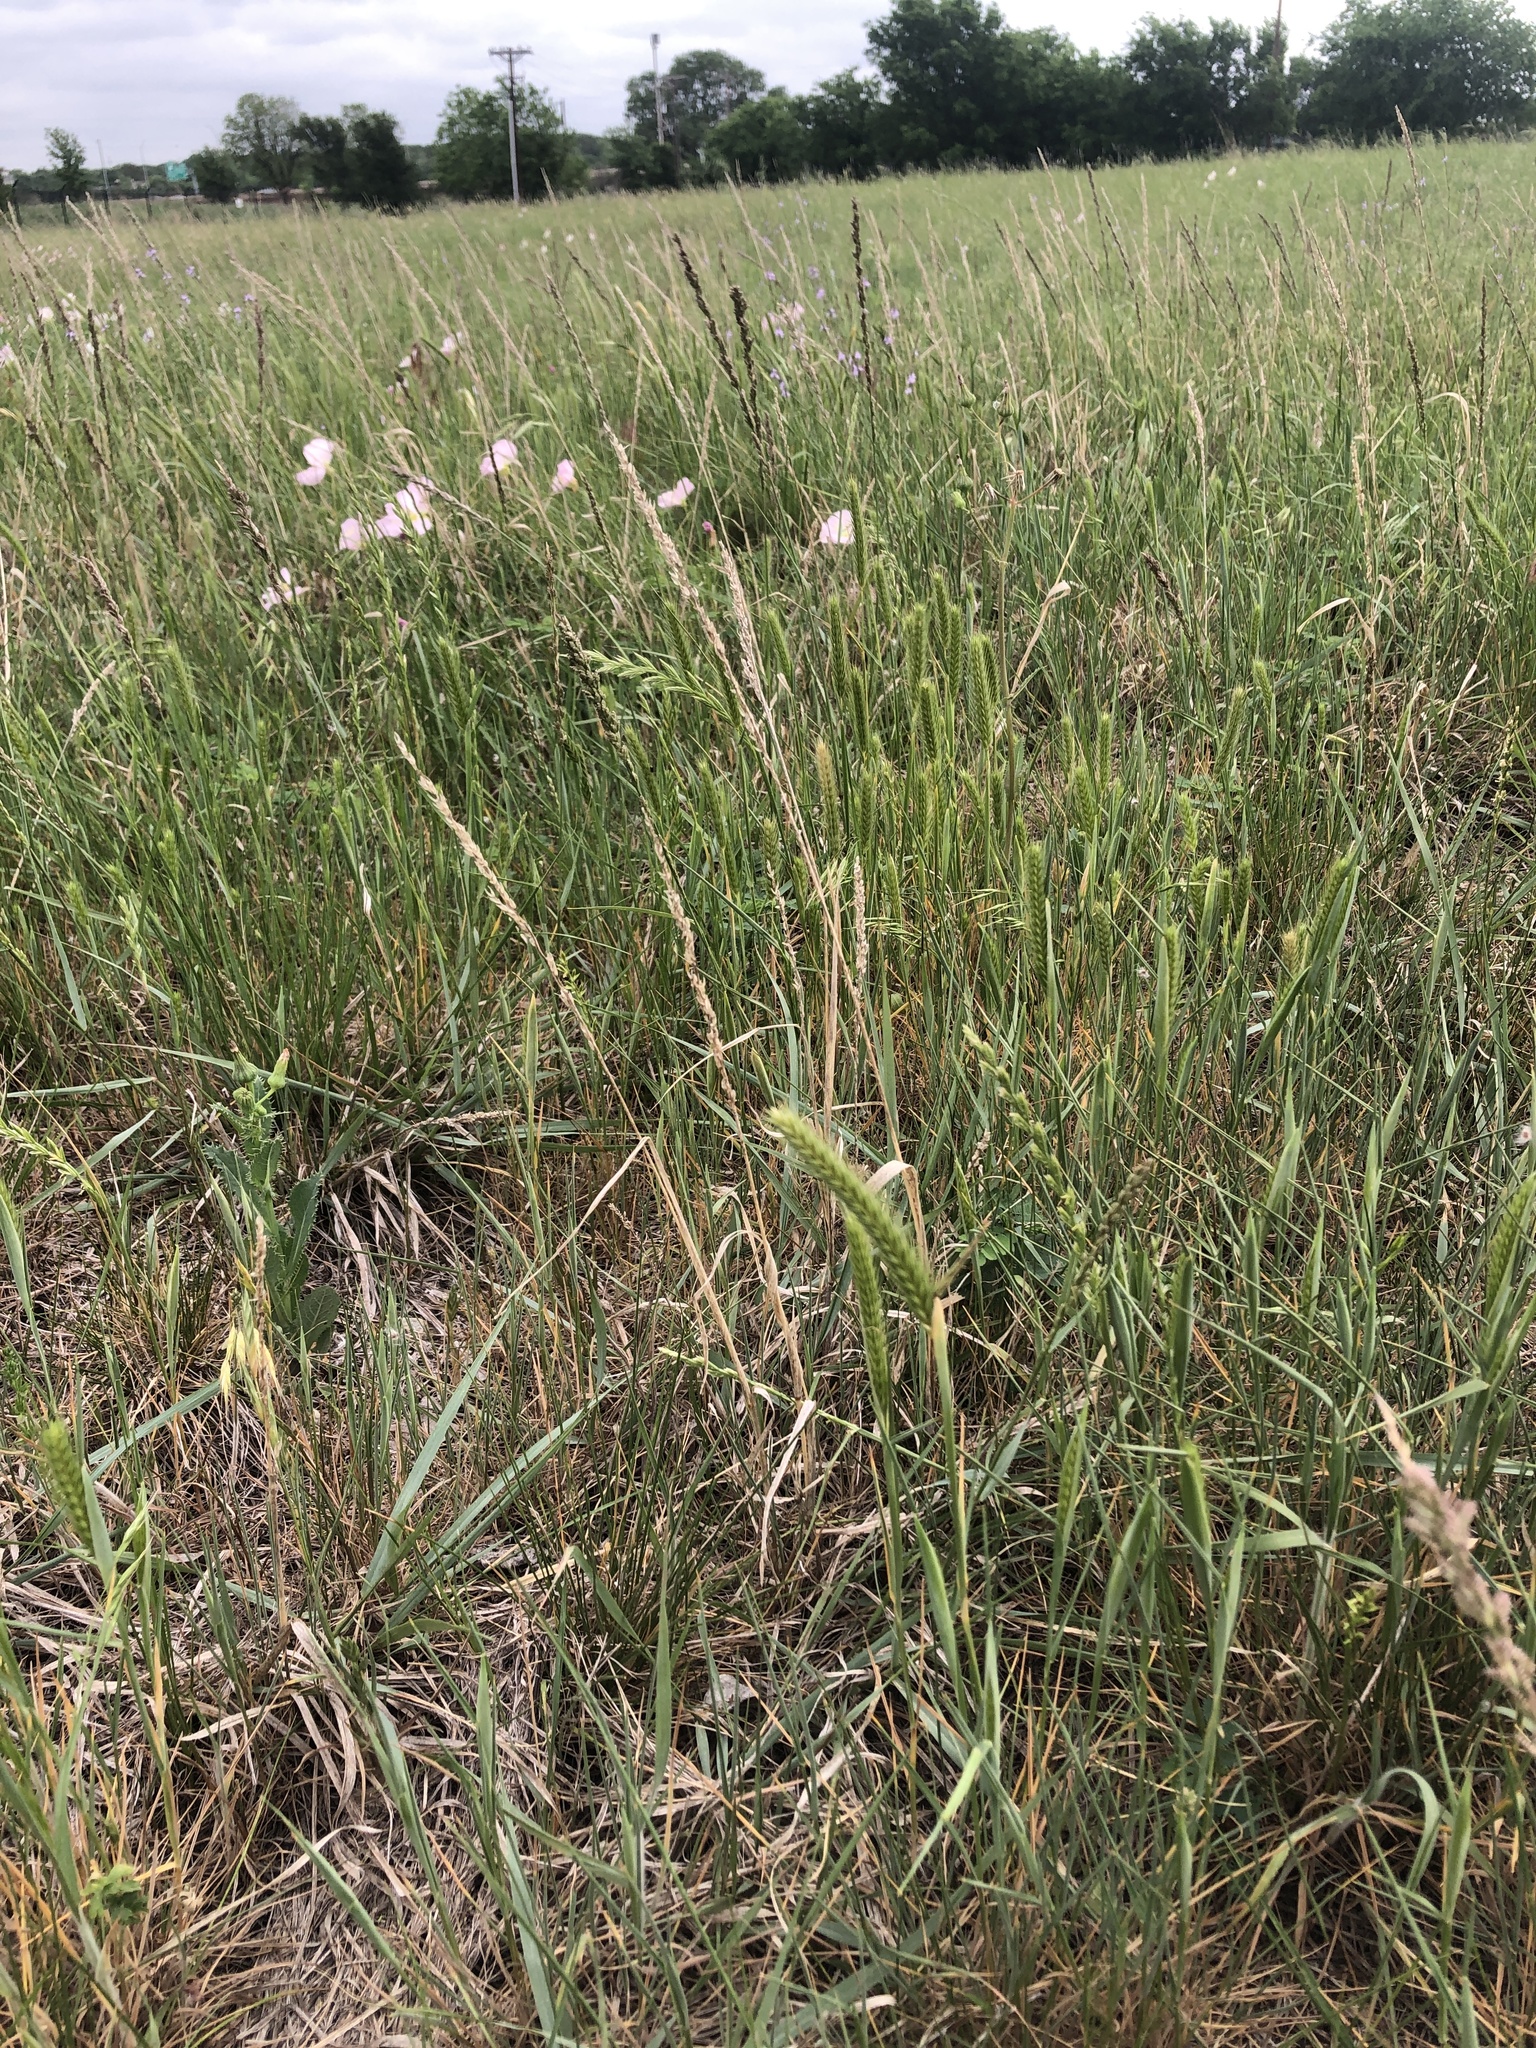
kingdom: Plantae
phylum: Tracheophyta
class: Liliopsida
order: Poales
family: Poaceae
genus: Tridens
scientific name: Tridens albescens
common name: White tridens
